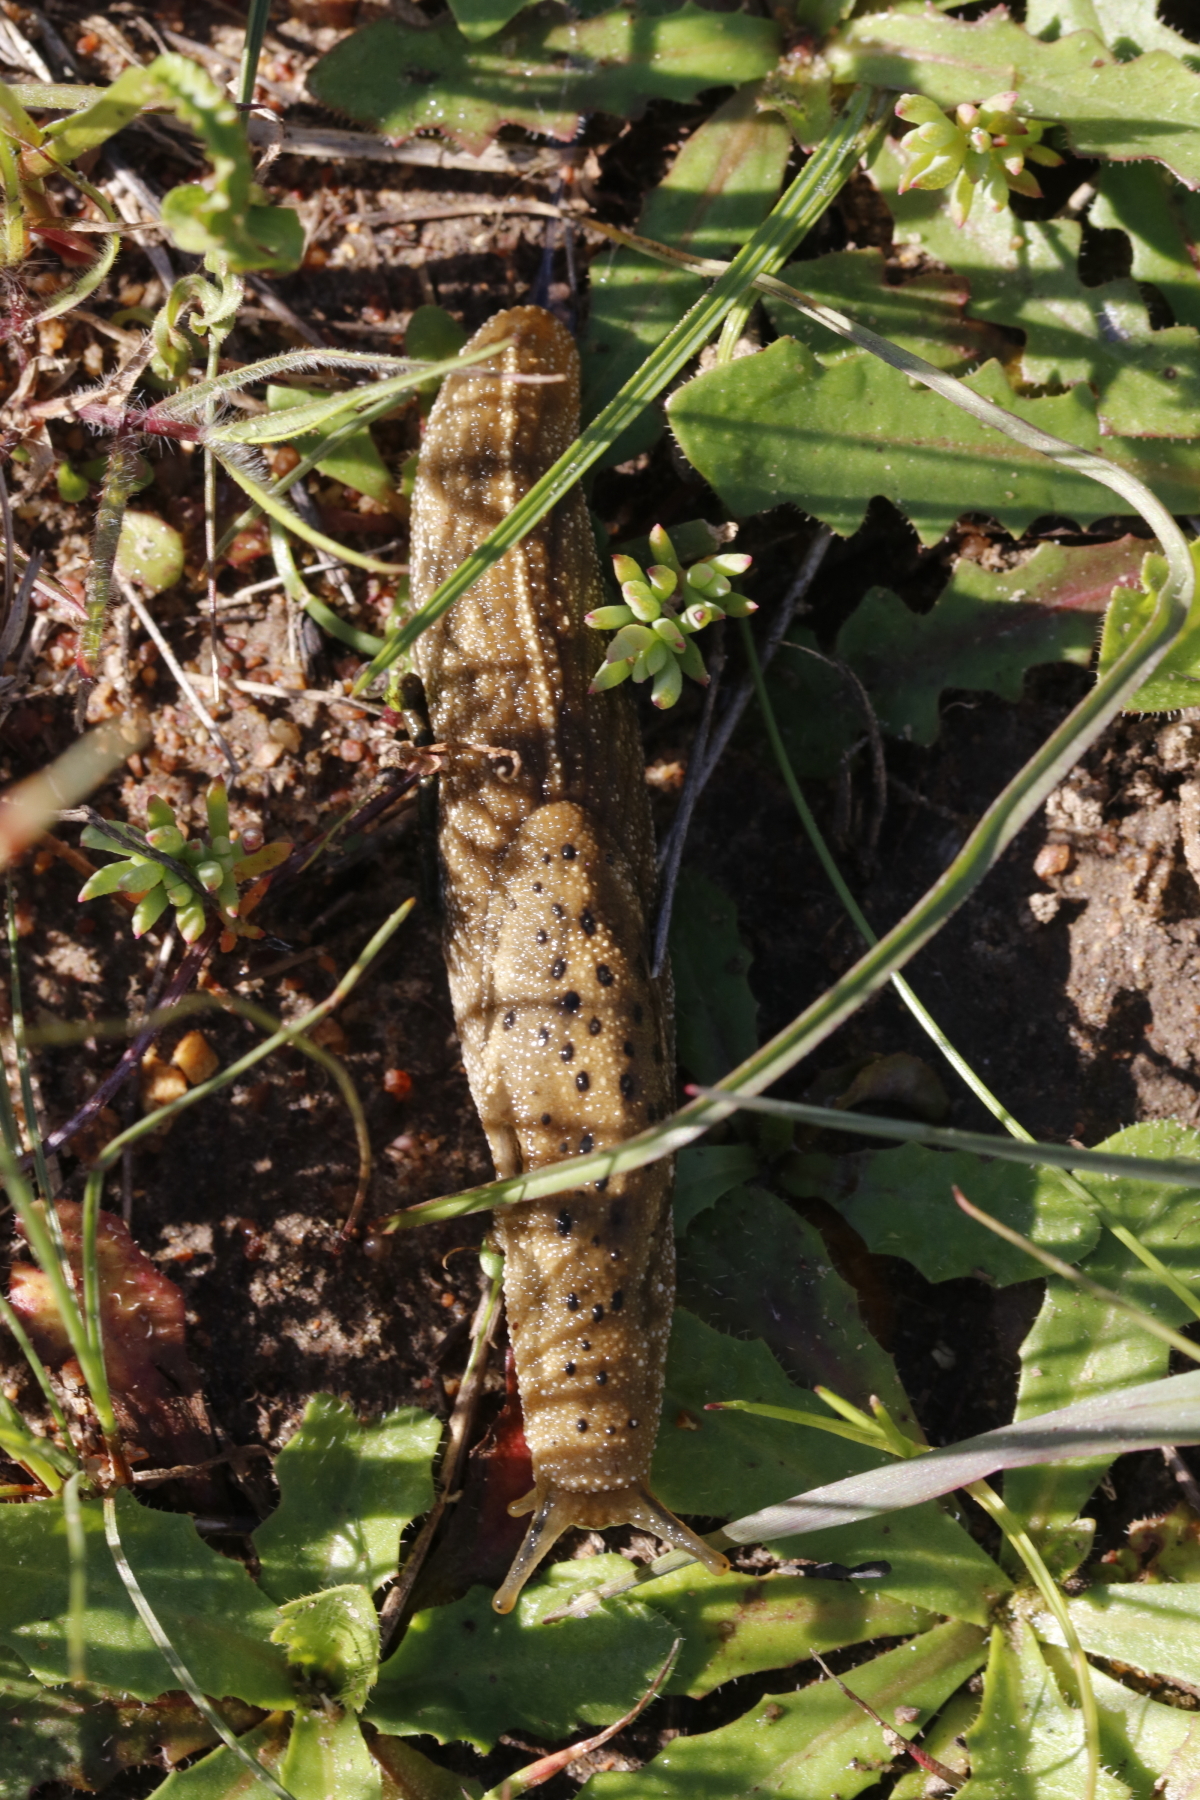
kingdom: Animalia
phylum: Mollusca
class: Gastropoda
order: Stylommatophora
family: Oopeltidae
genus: Oopelta
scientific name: Oopelta nigropunctata
